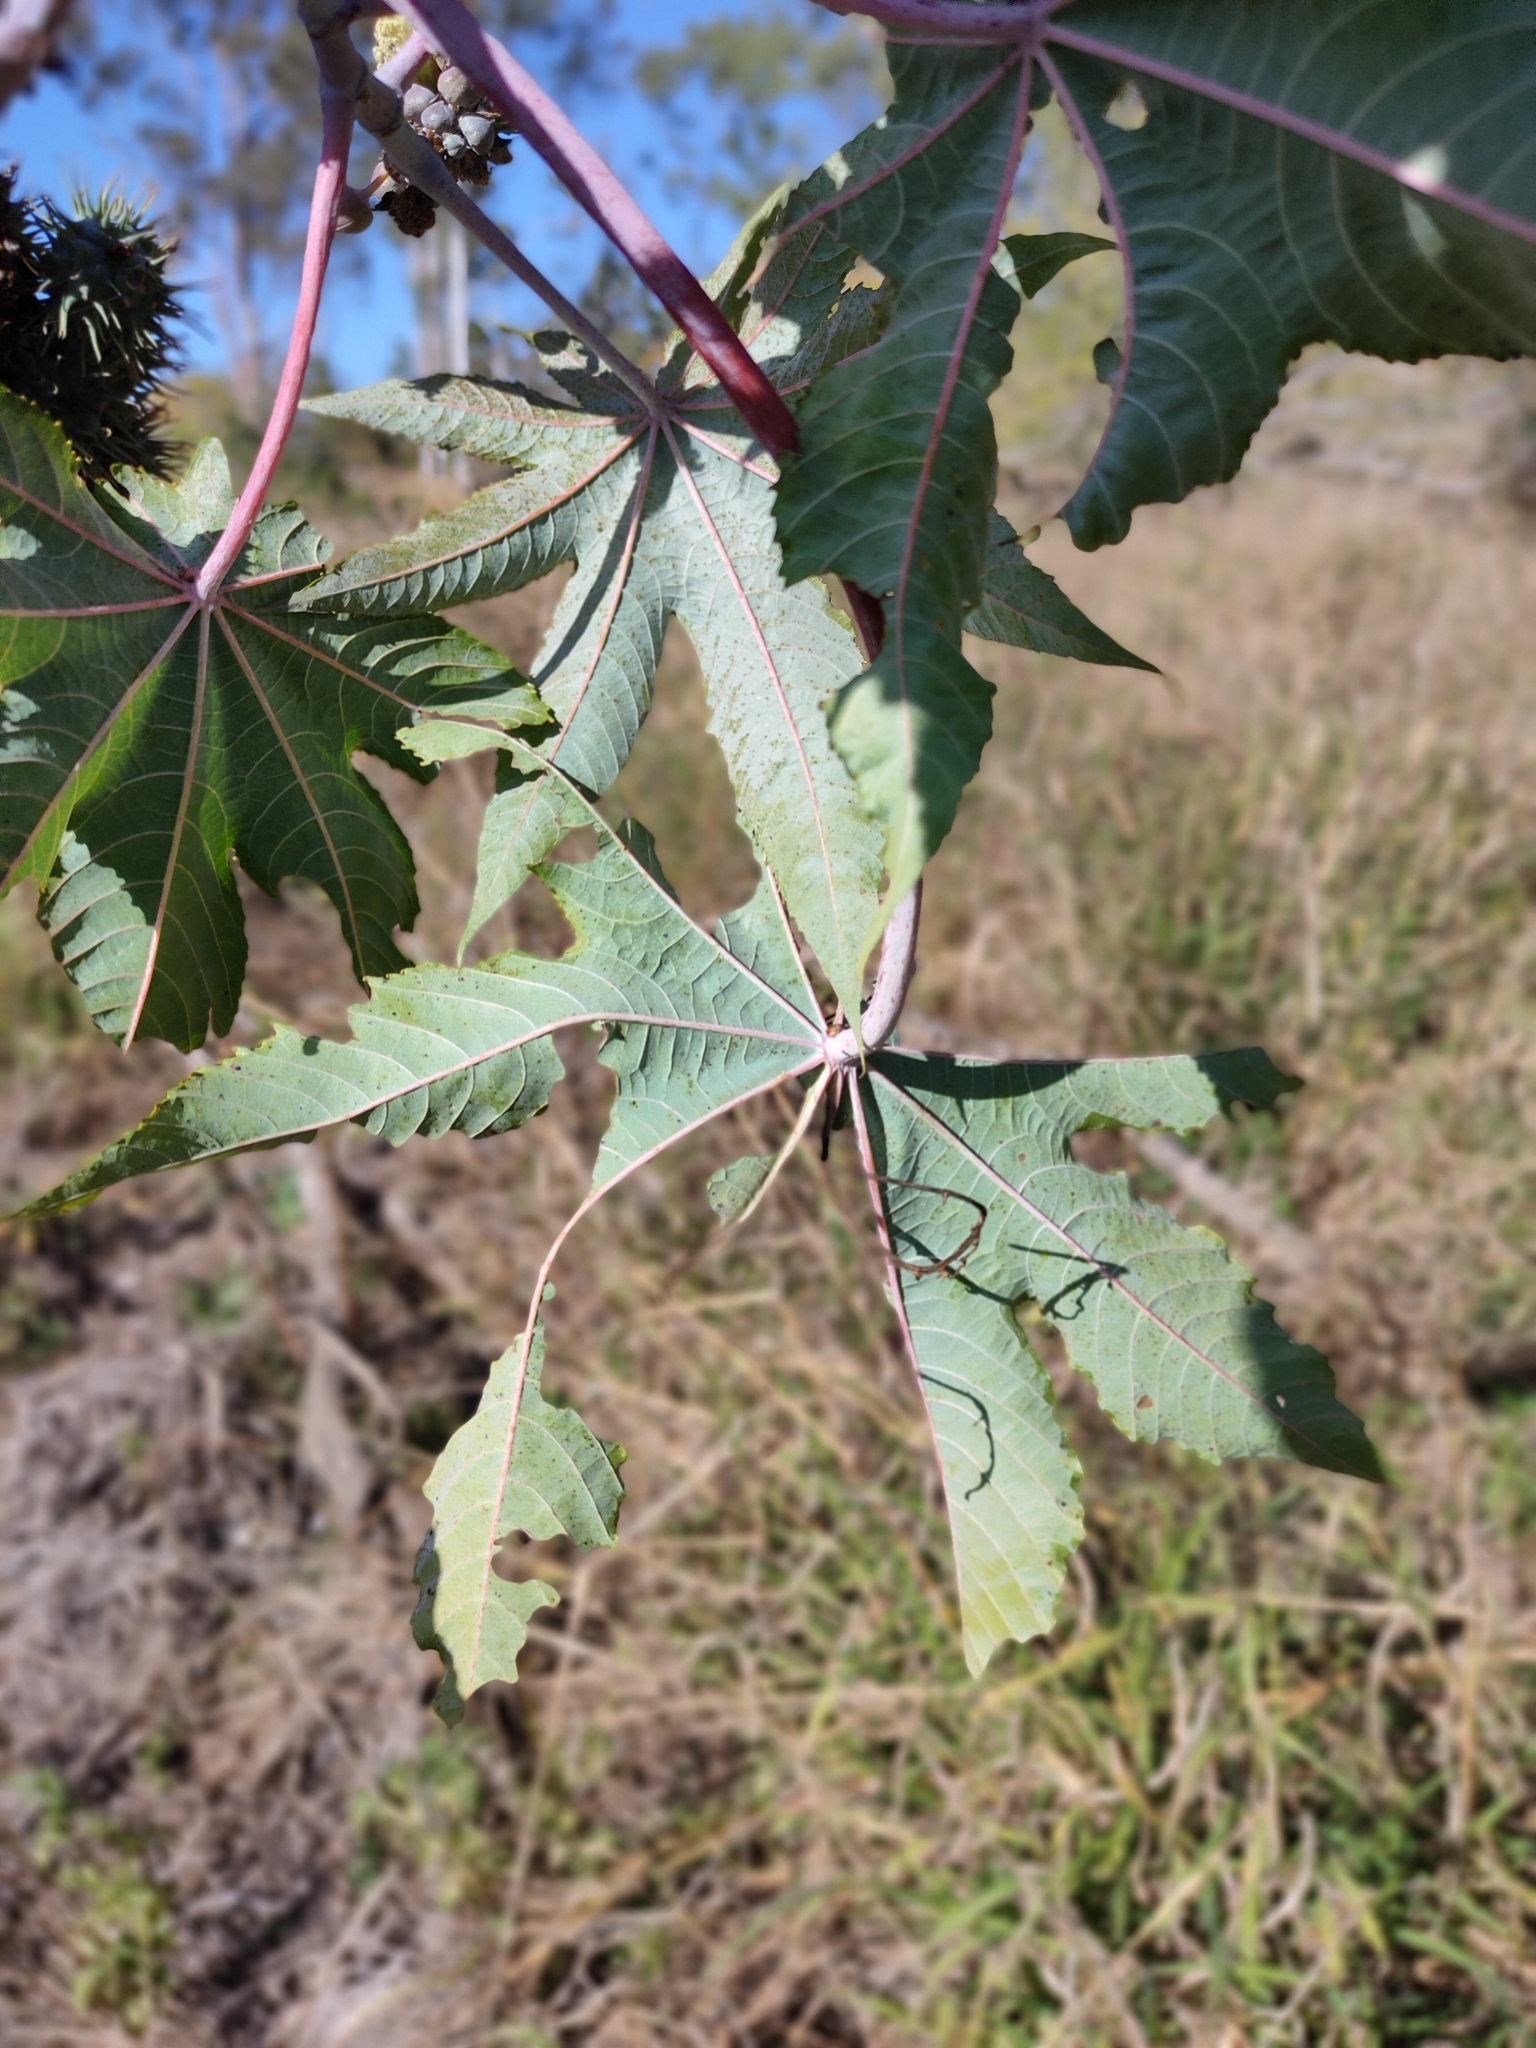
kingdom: Plantae
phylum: Tracheophyta
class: Magnoliopsida
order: Malpighiales
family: Euphorbiaceae
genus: Ricinus
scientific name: Ricinus communis
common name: Castor-oil-plant
